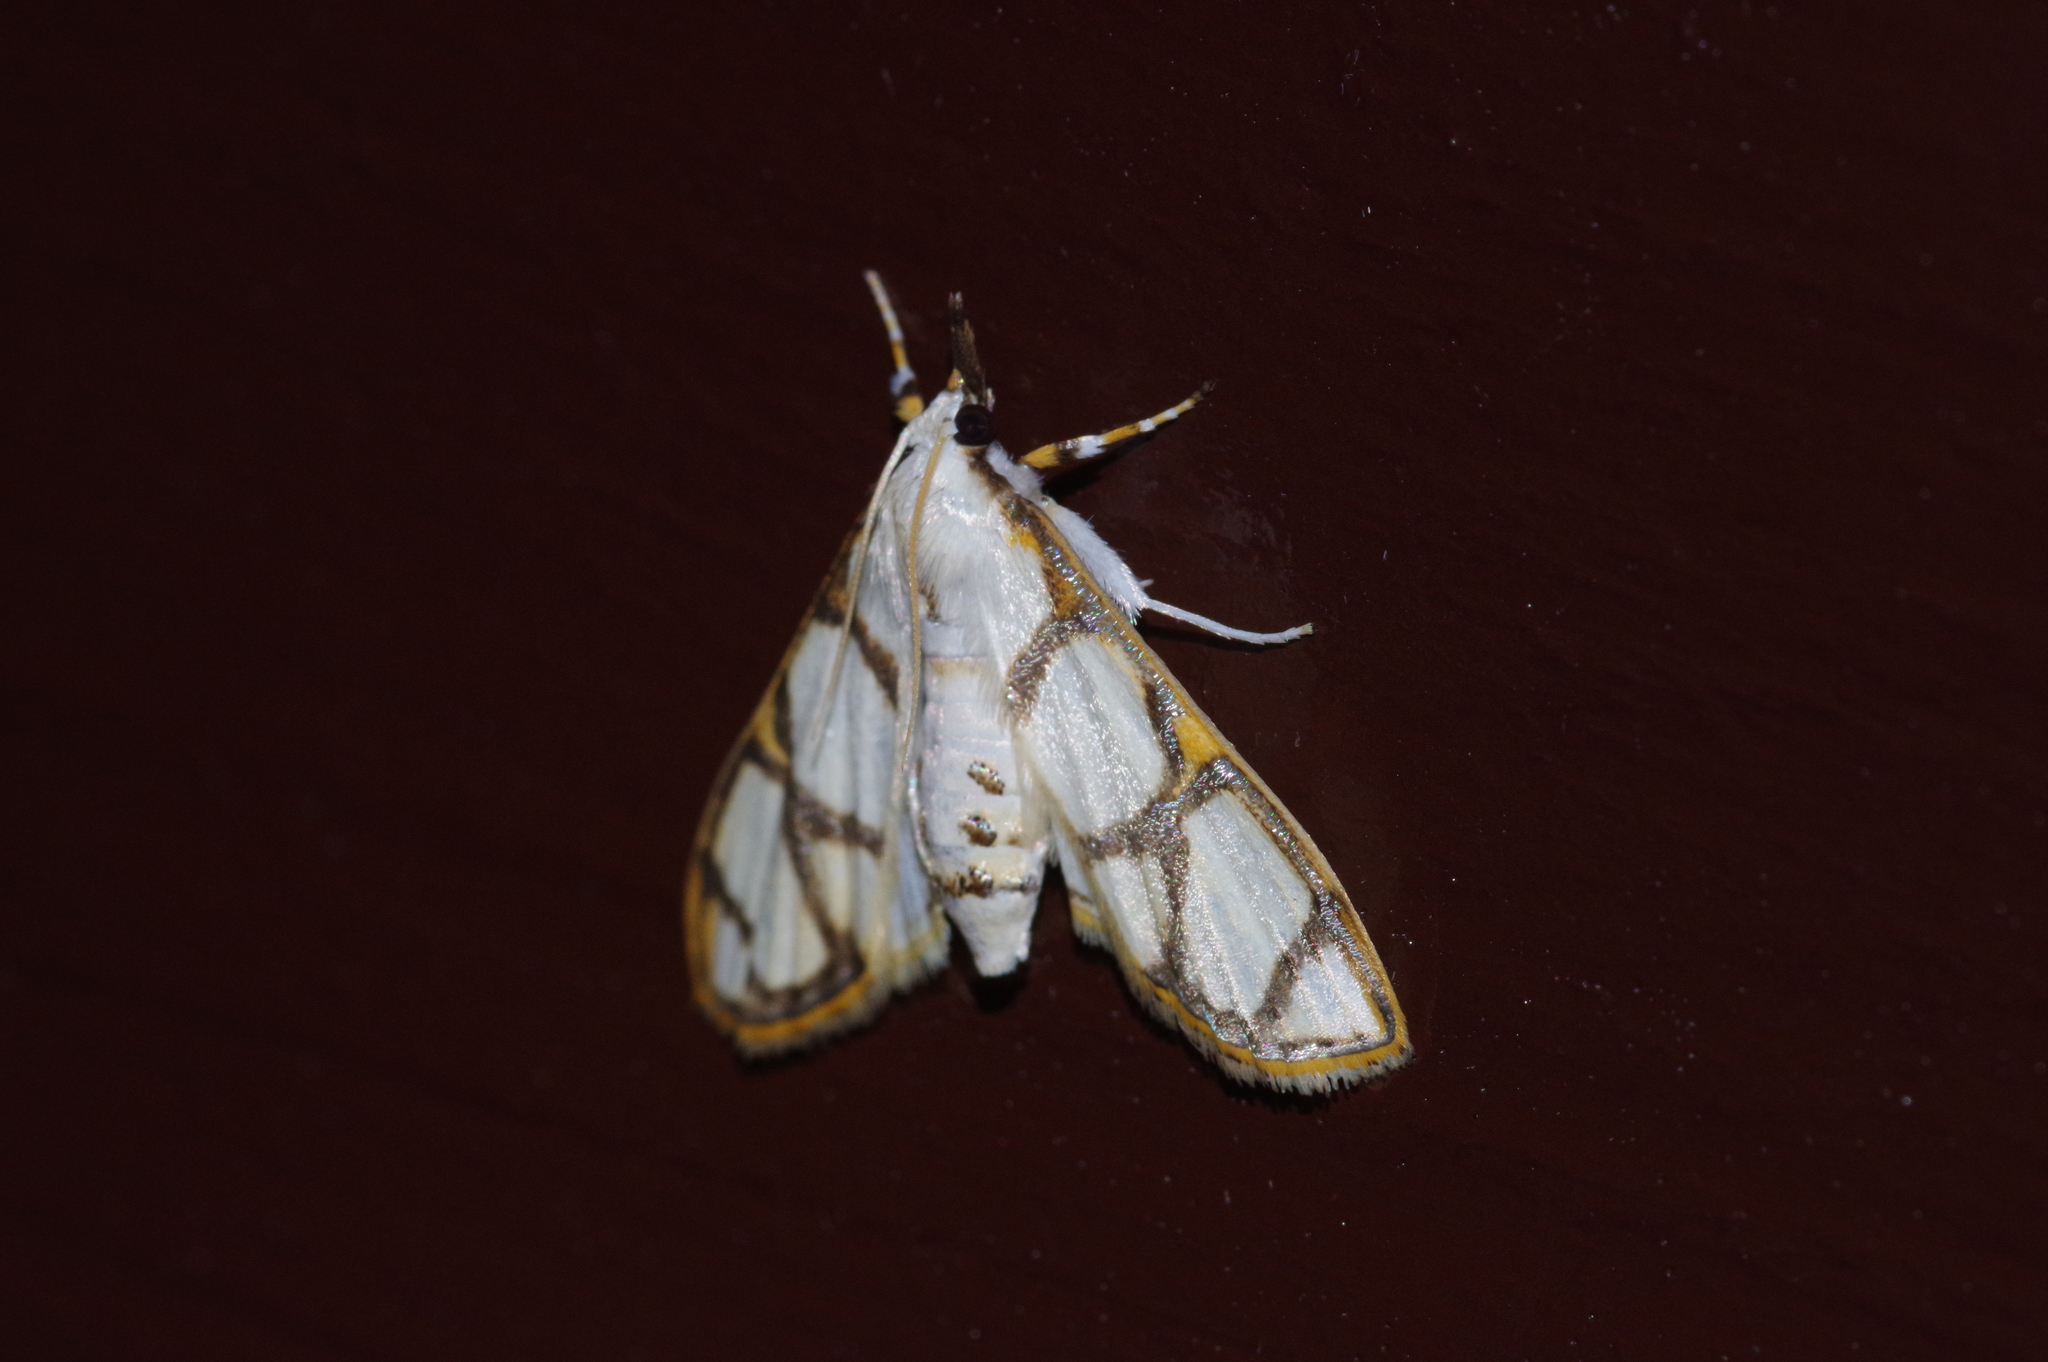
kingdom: Animalia
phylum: Arthropoda
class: Insecta
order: Lepidoptera
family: Crambidae
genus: Cirrhochrista
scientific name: Cirrhochrista kosemponialis
